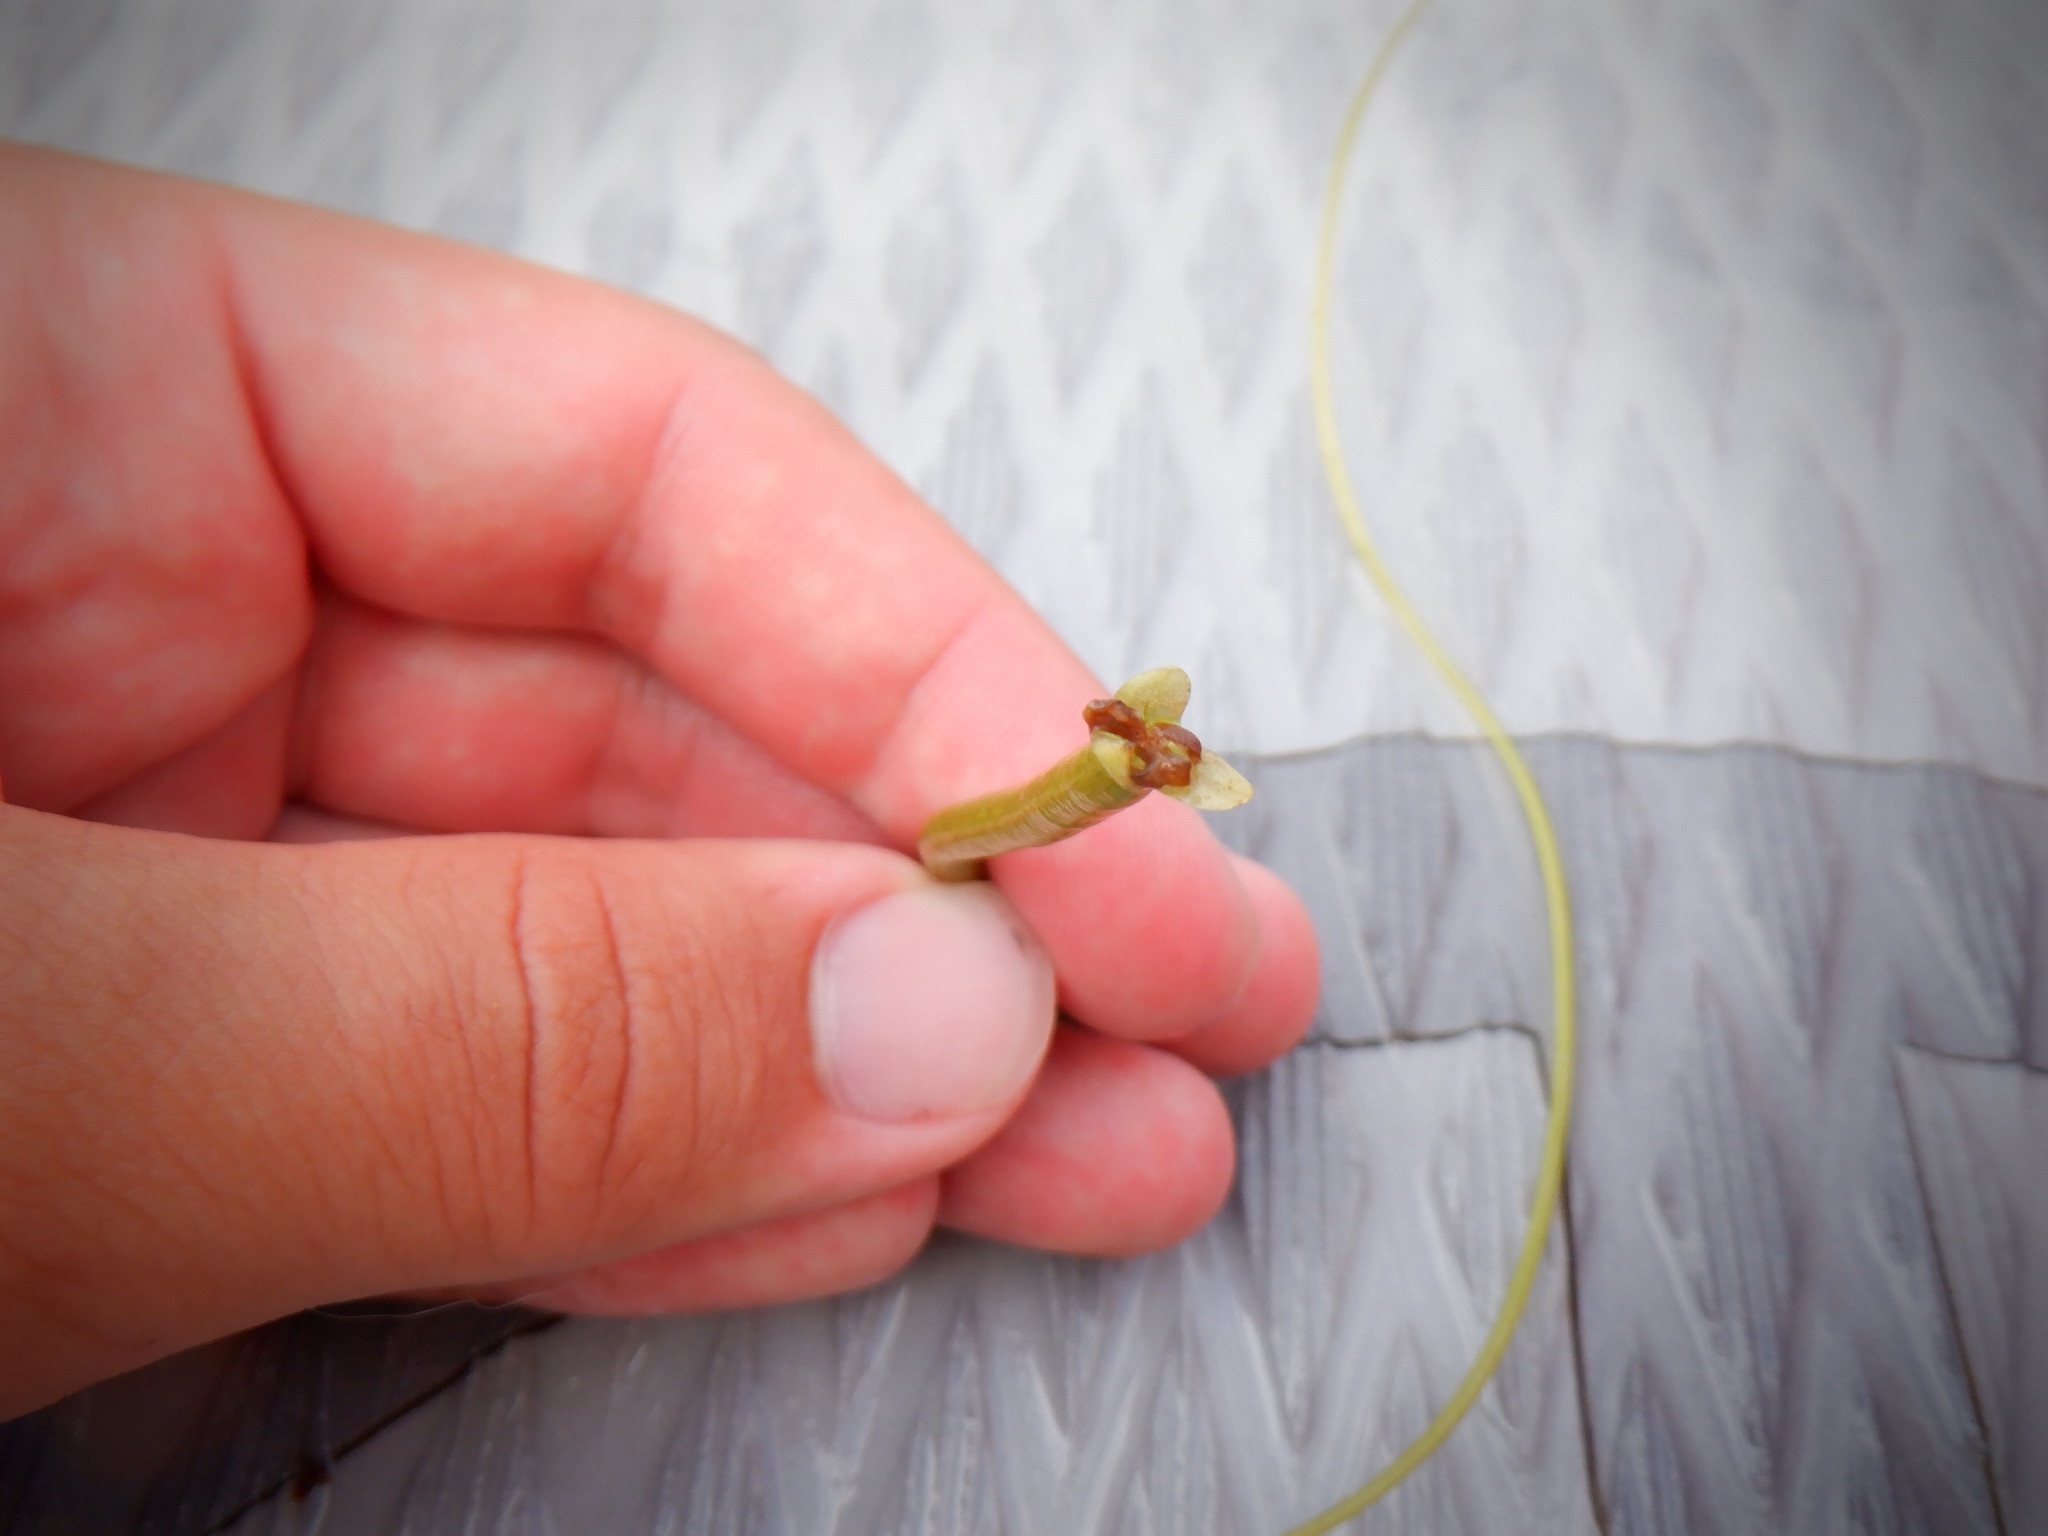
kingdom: Plantae
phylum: Tracheophyta
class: Liliopsida
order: Alismatales
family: Hydrocharitaceae
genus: Vallisneria
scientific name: Vallisneria americana
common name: American eelgrass
